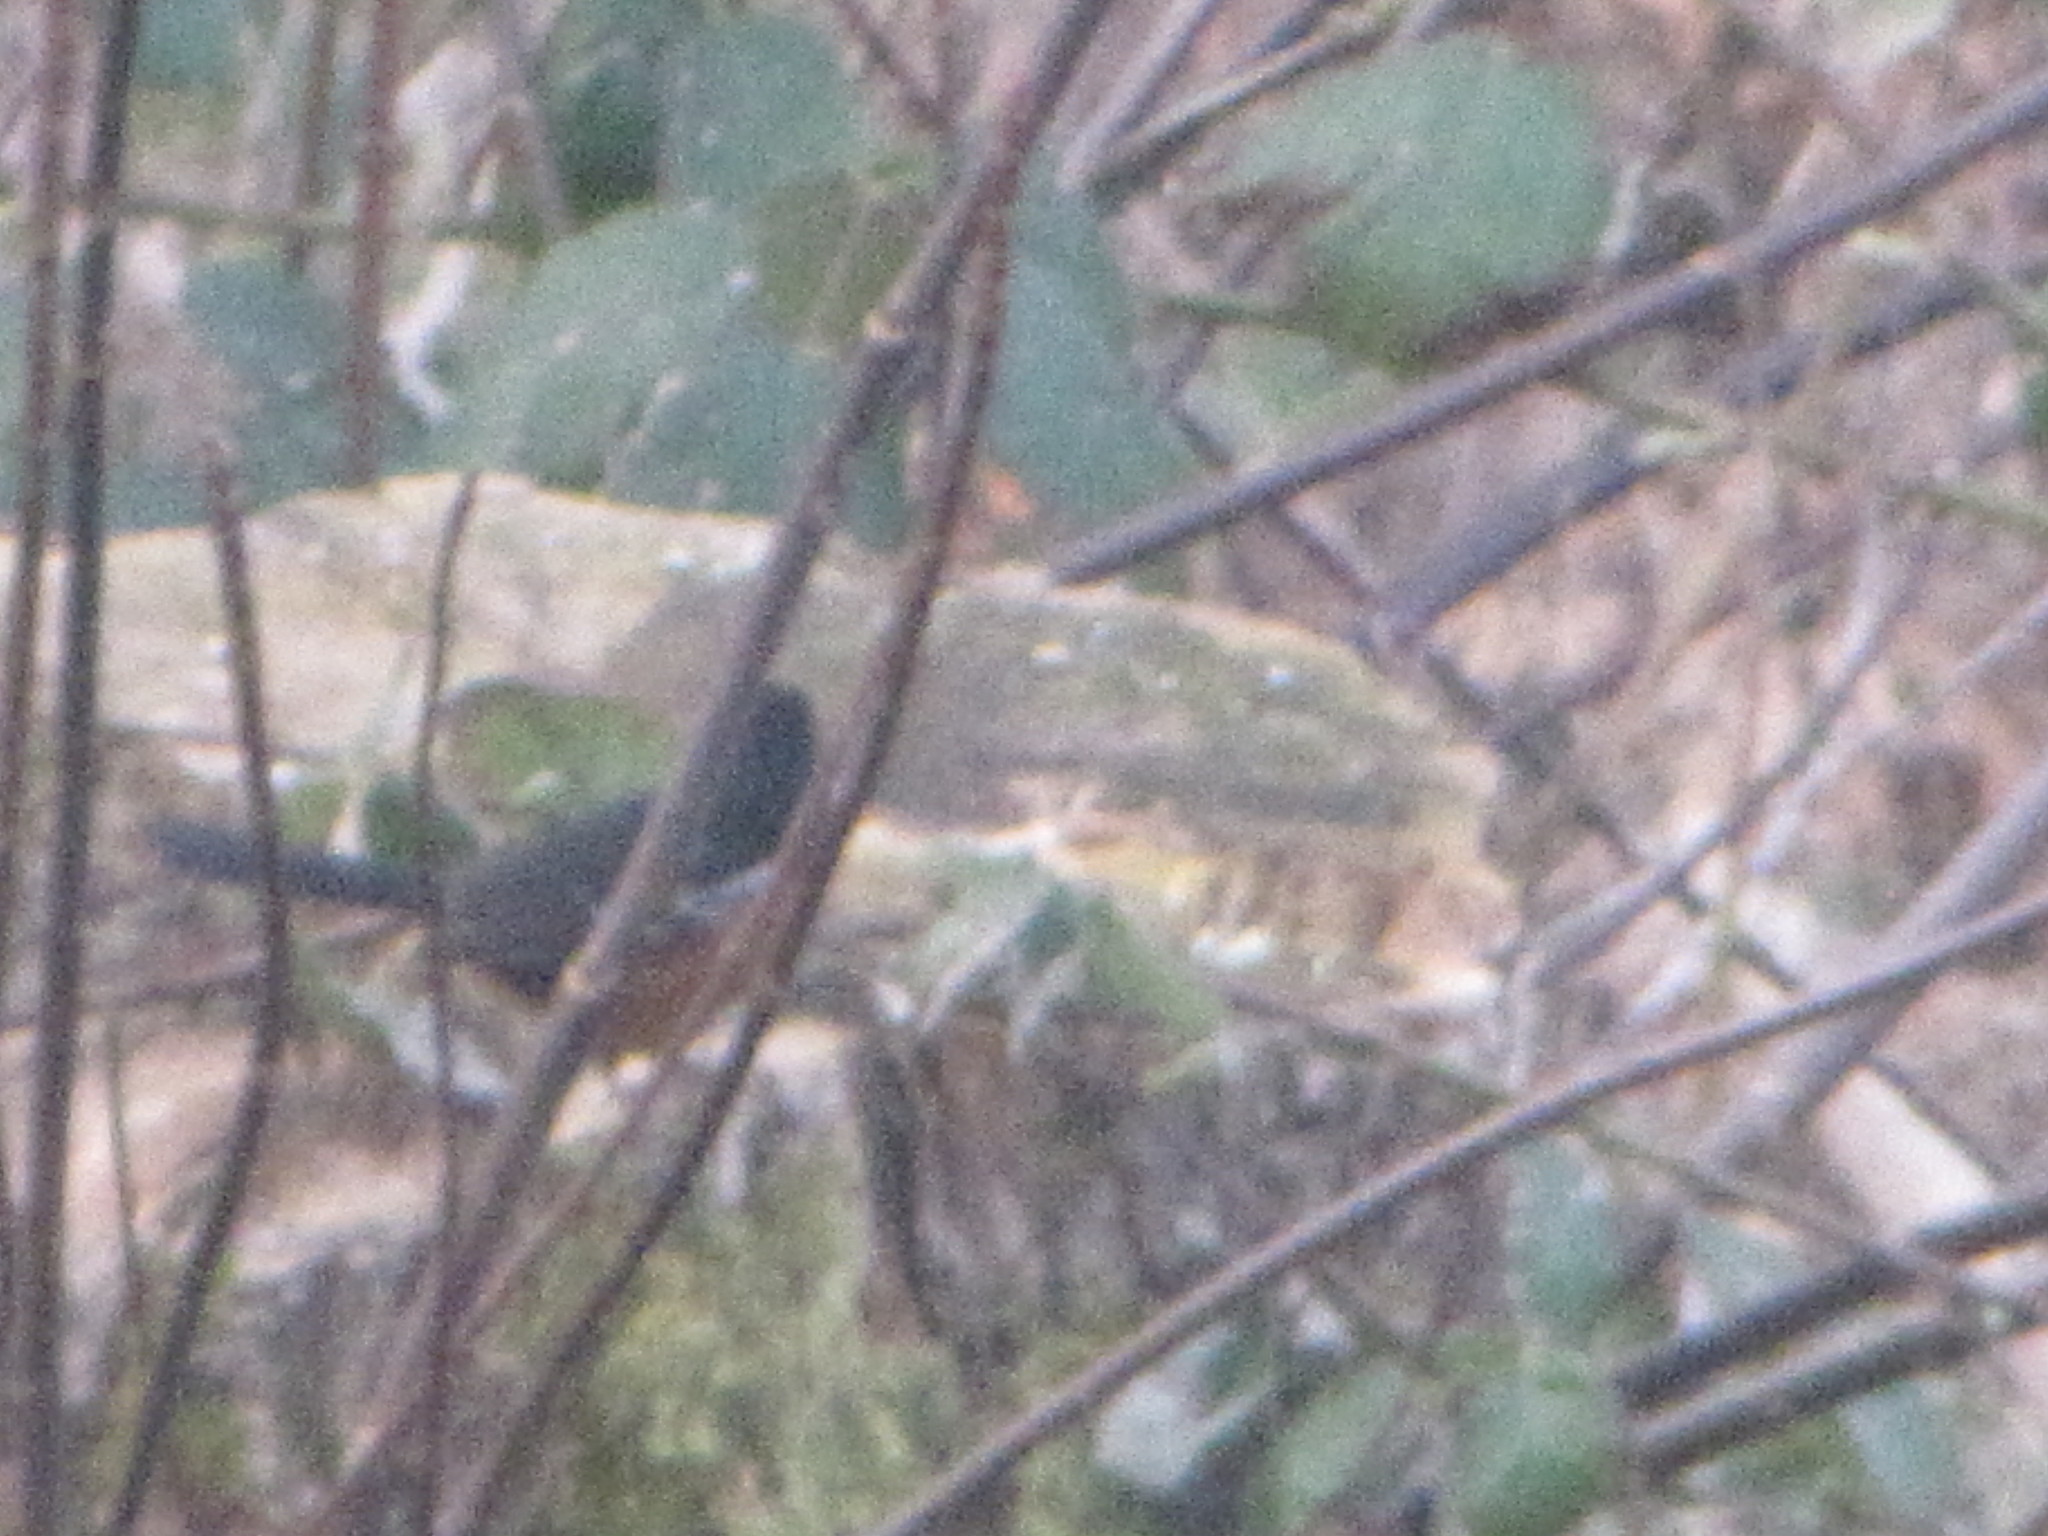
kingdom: Animalia
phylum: Chordata
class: Aves
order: Passeriformes
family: Passerellidae
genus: Pipilo
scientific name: Pipilo maculatus
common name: Spotted towhee
